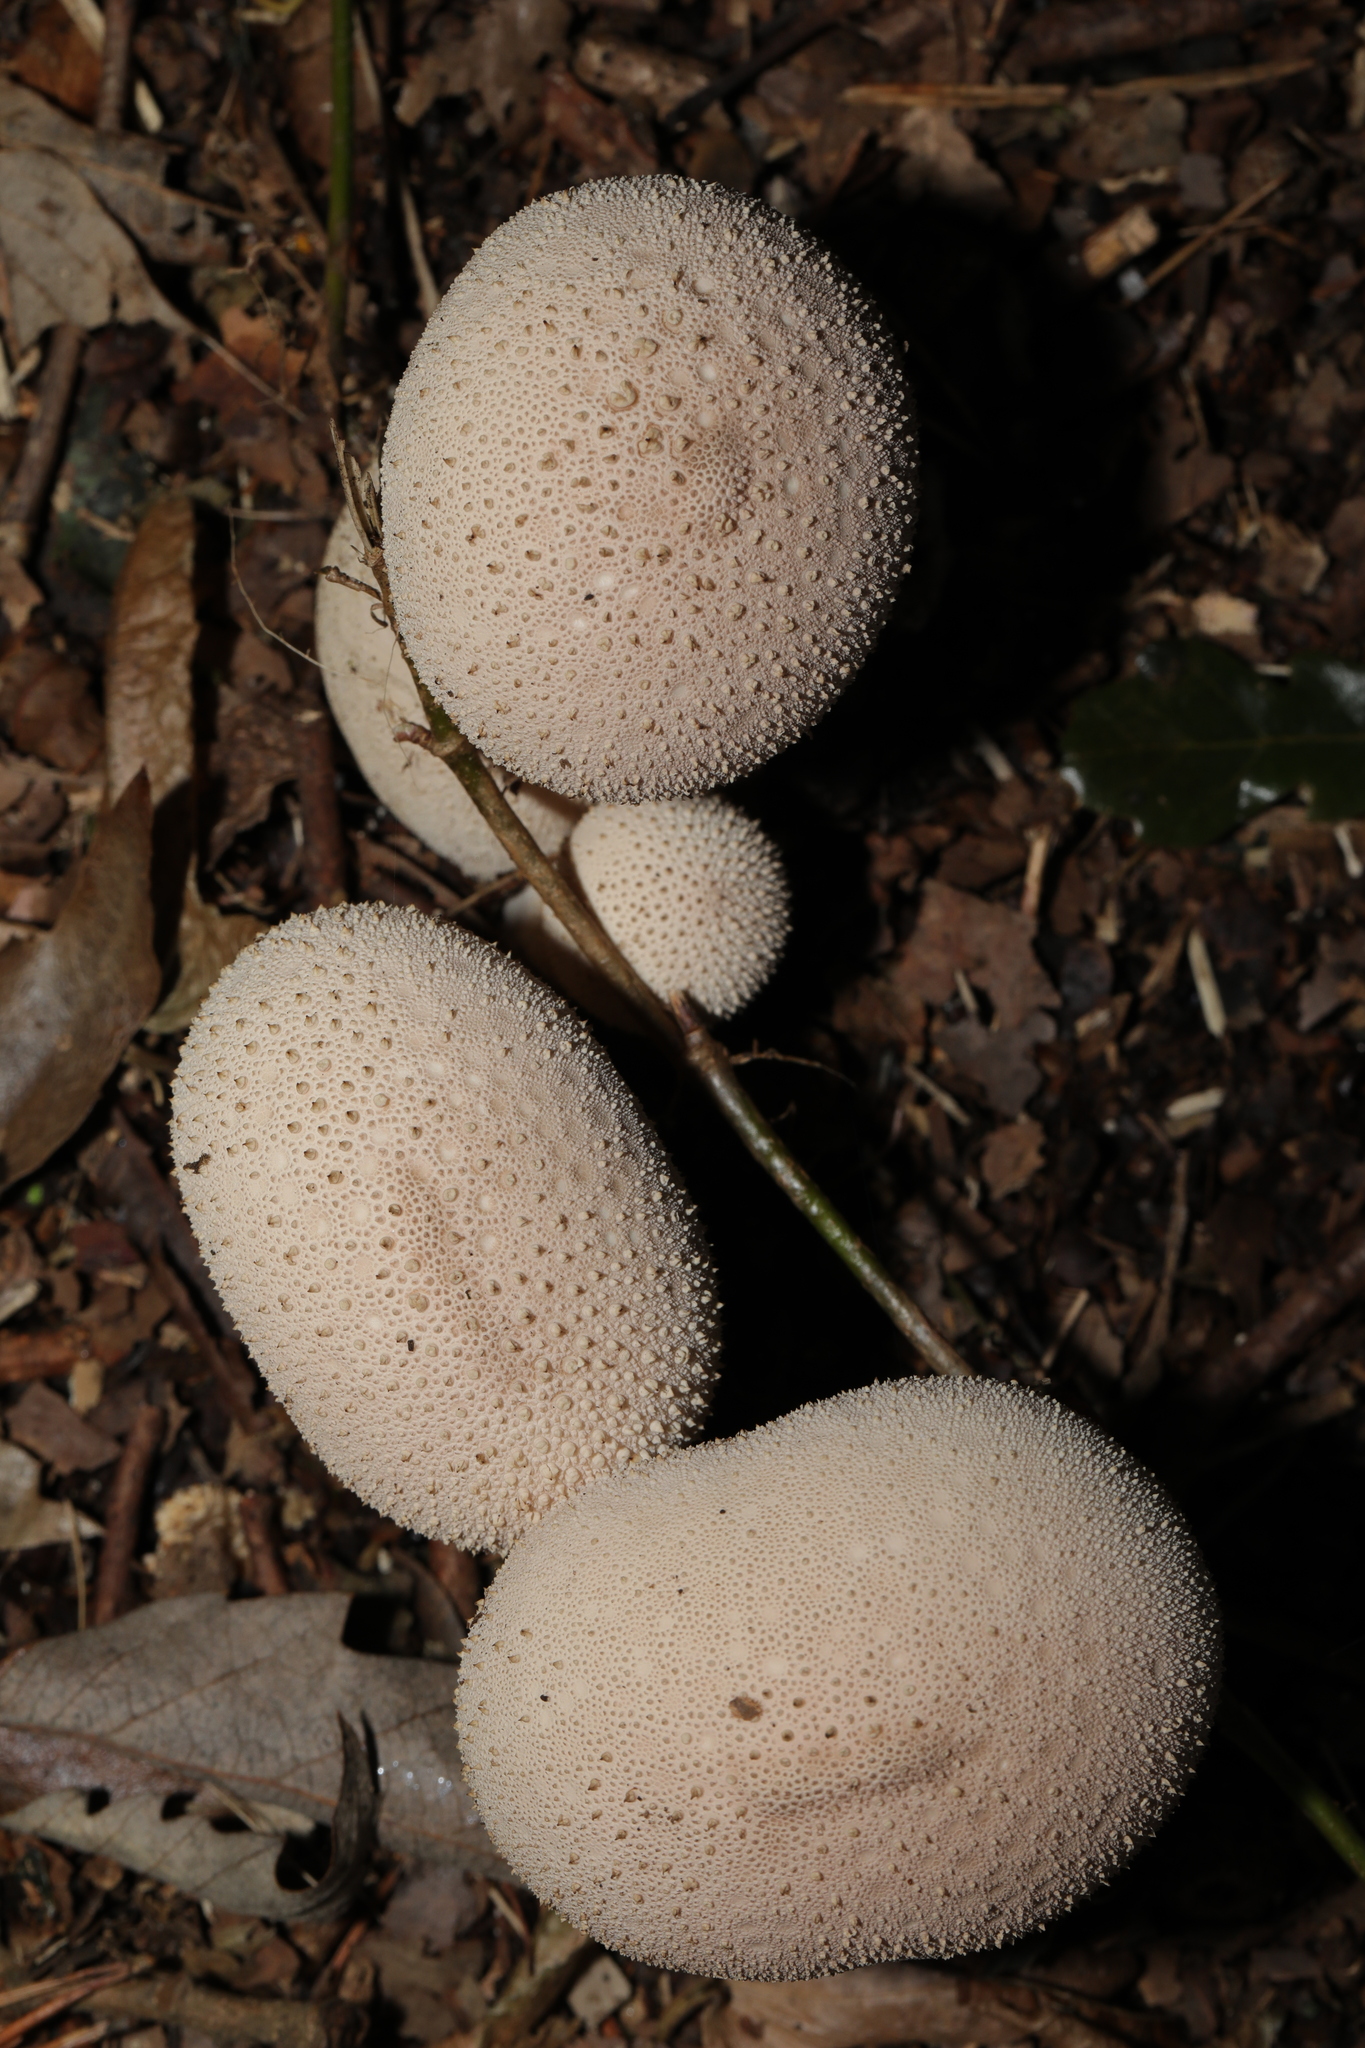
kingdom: Fungi
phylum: Basidiomycota
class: Agaricomycetes
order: Agaricales
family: Lycoperdaceae
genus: Lycoperdon
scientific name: Lycoperdon perlatum
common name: Common puffball
